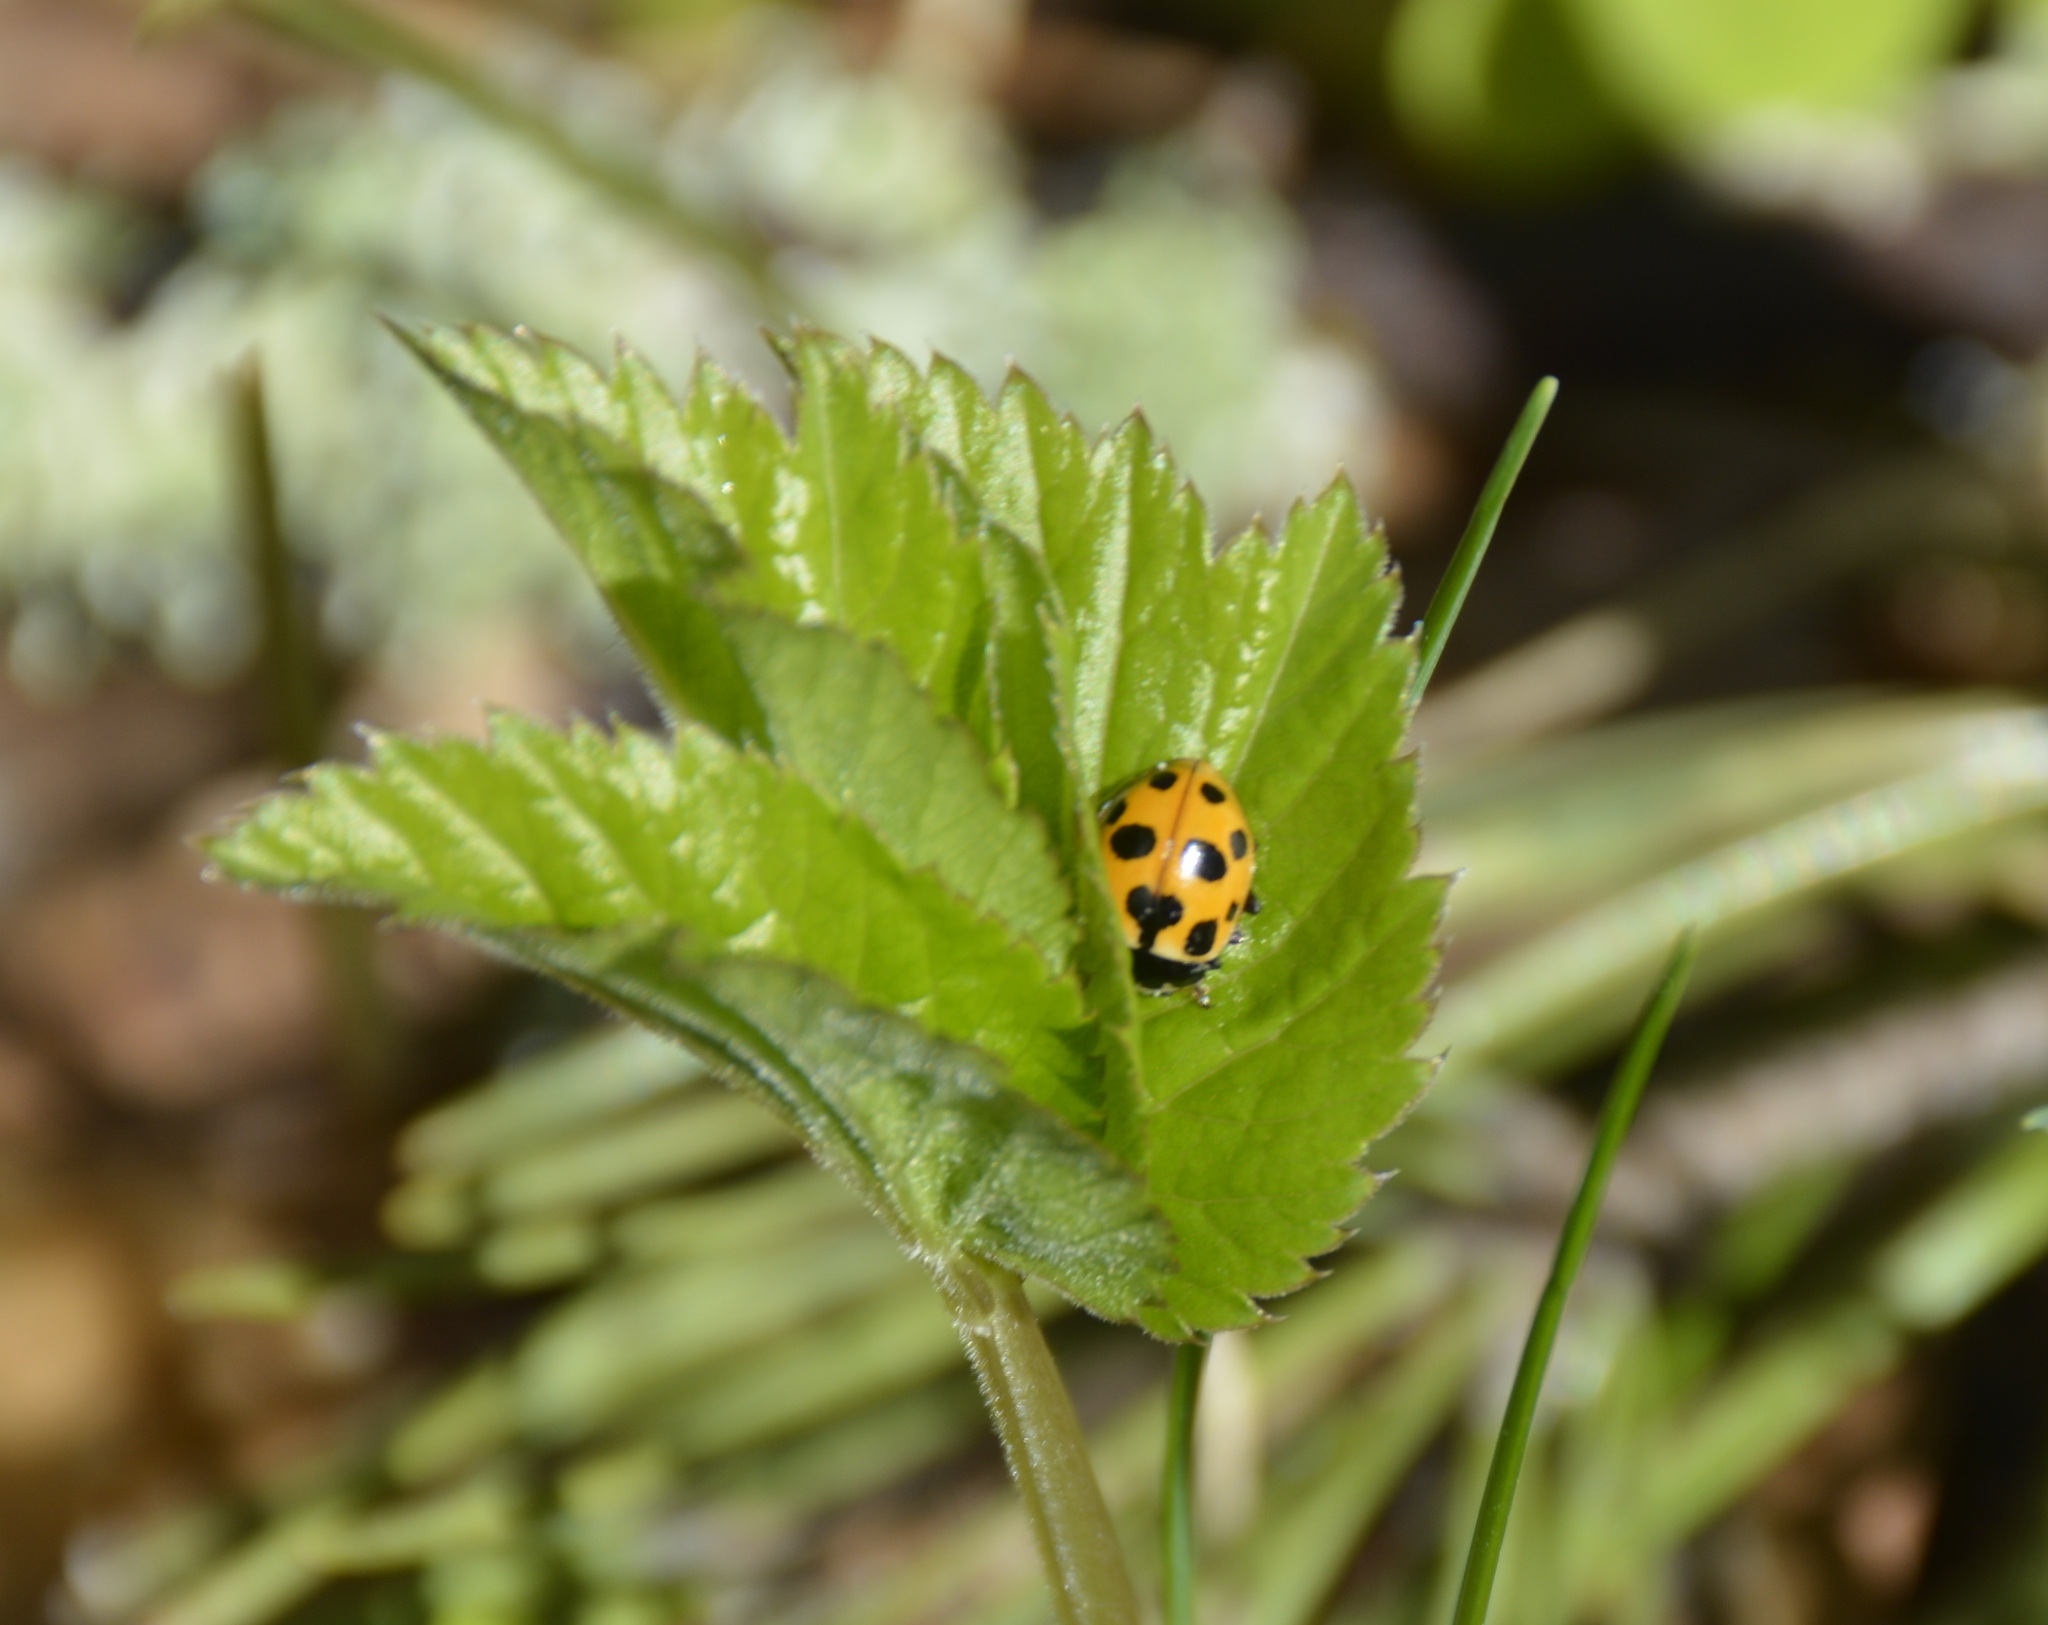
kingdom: Animalia
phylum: Arthropoda
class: Insecta
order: Coleoptera
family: Coccinellidae
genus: Ceratomegilla
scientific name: Ceratomegilla notata
